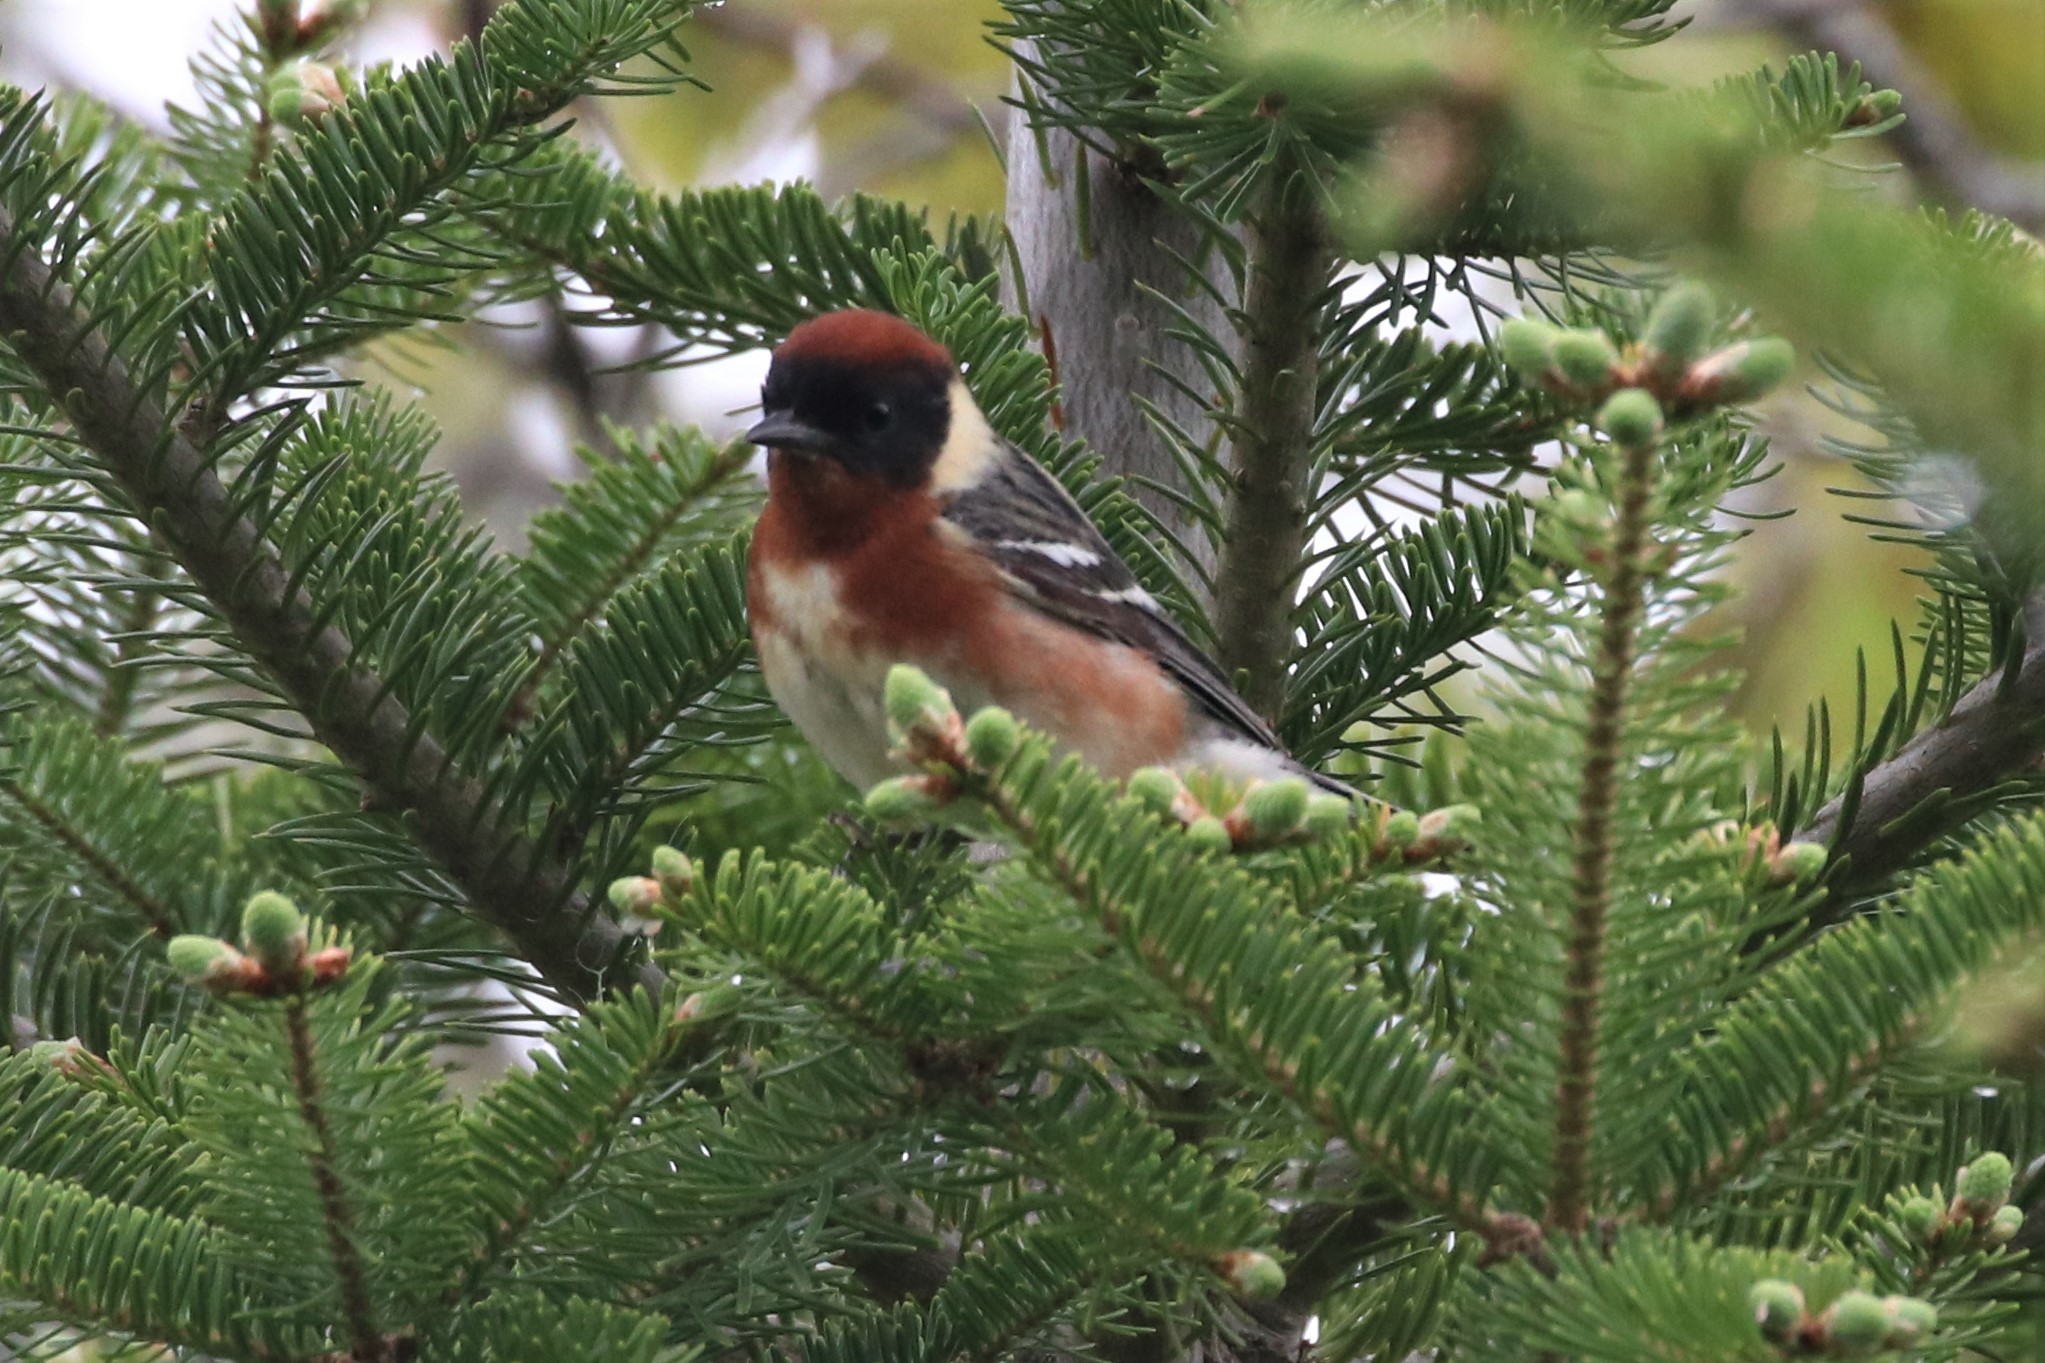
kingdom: Animalia
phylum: Chordata
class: Aves
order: Passeriformes
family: Parulidae
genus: Setophaga
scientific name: Setophaga castanea
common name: Bay-breasted warbler
